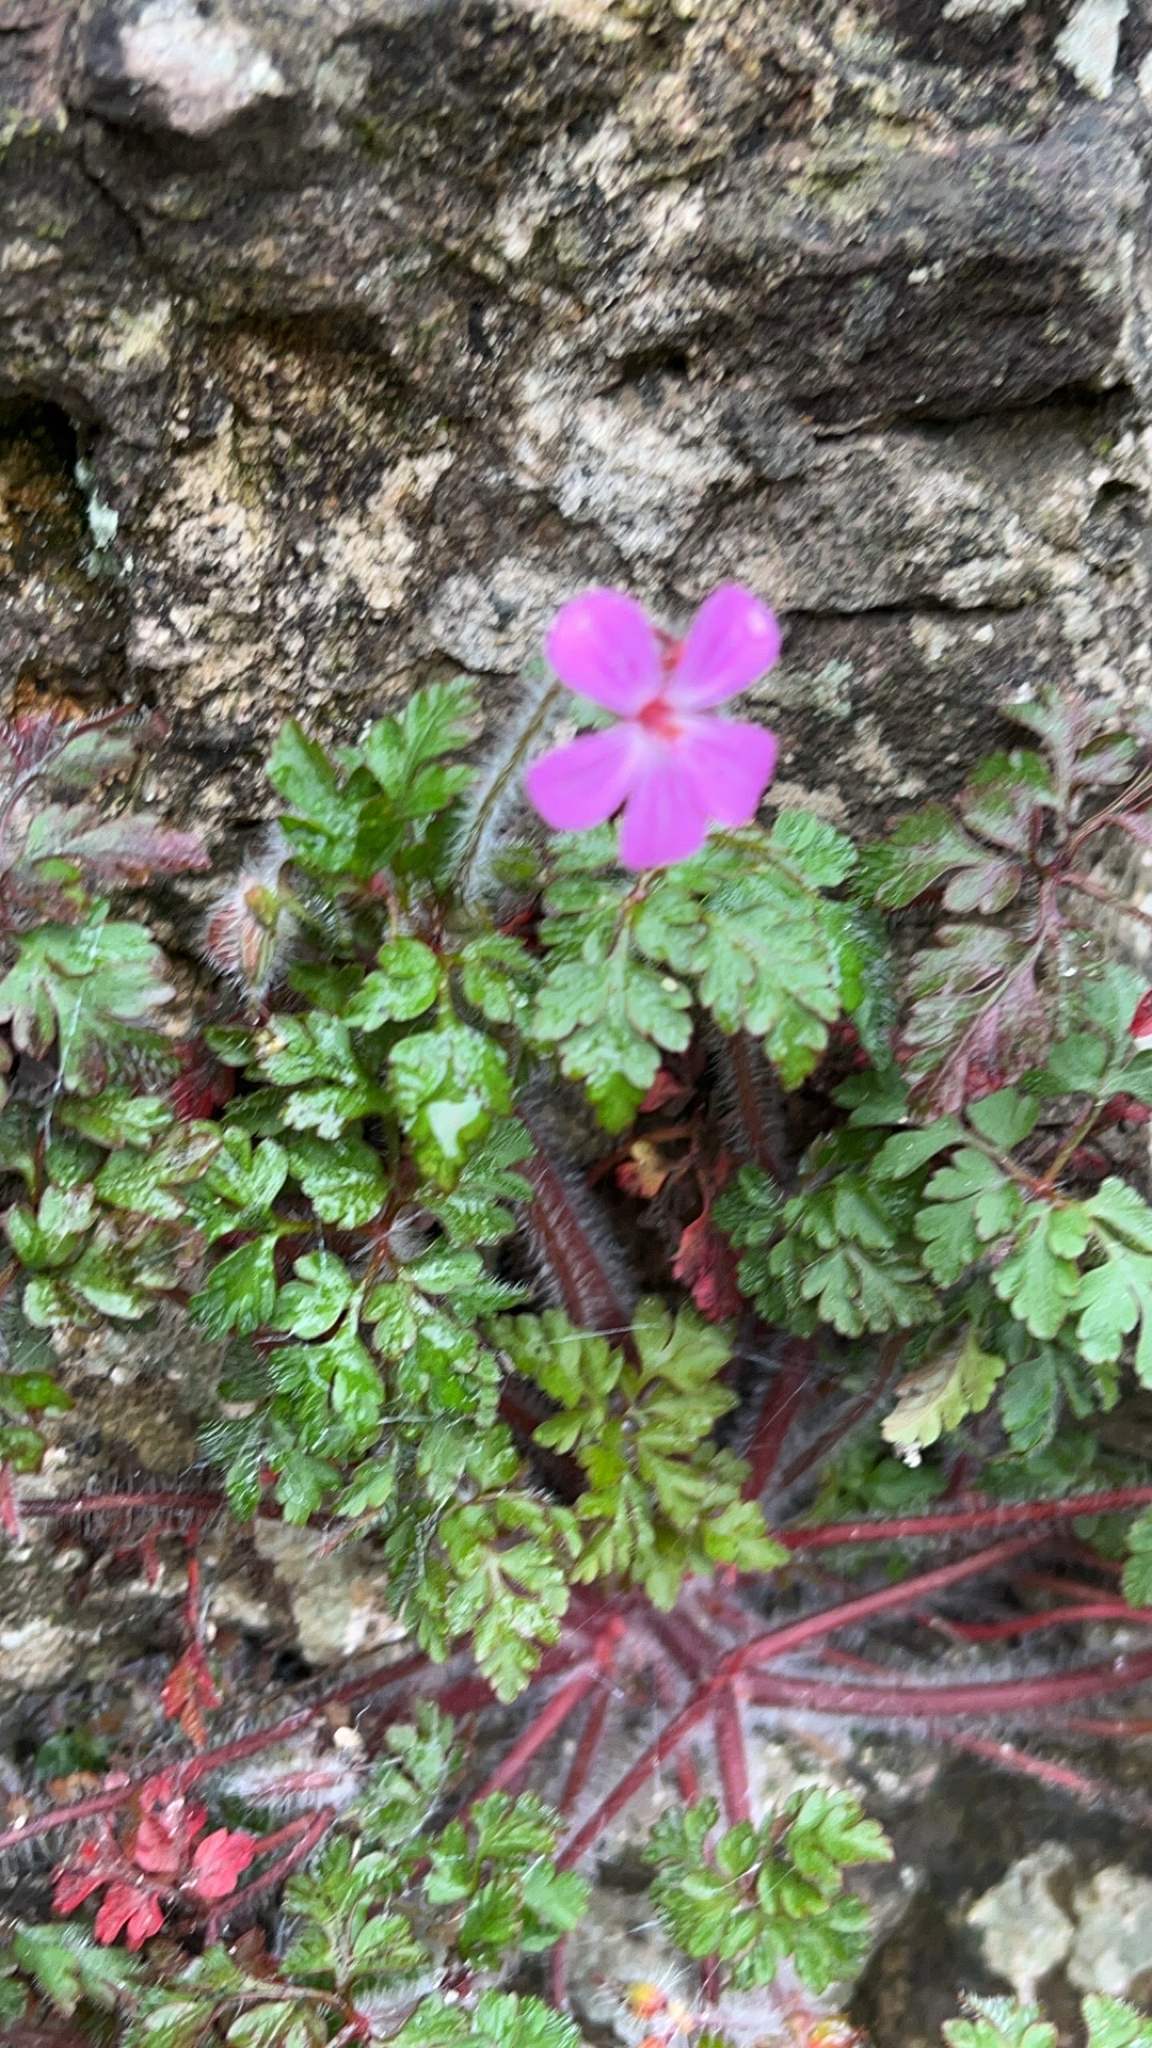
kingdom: Plantae
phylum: Tracheophyta
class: Magnoliopsida
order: Geraniales
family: Geraniaceae
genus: Geranium
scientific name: Geranium robertianum
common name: Herb-robert
